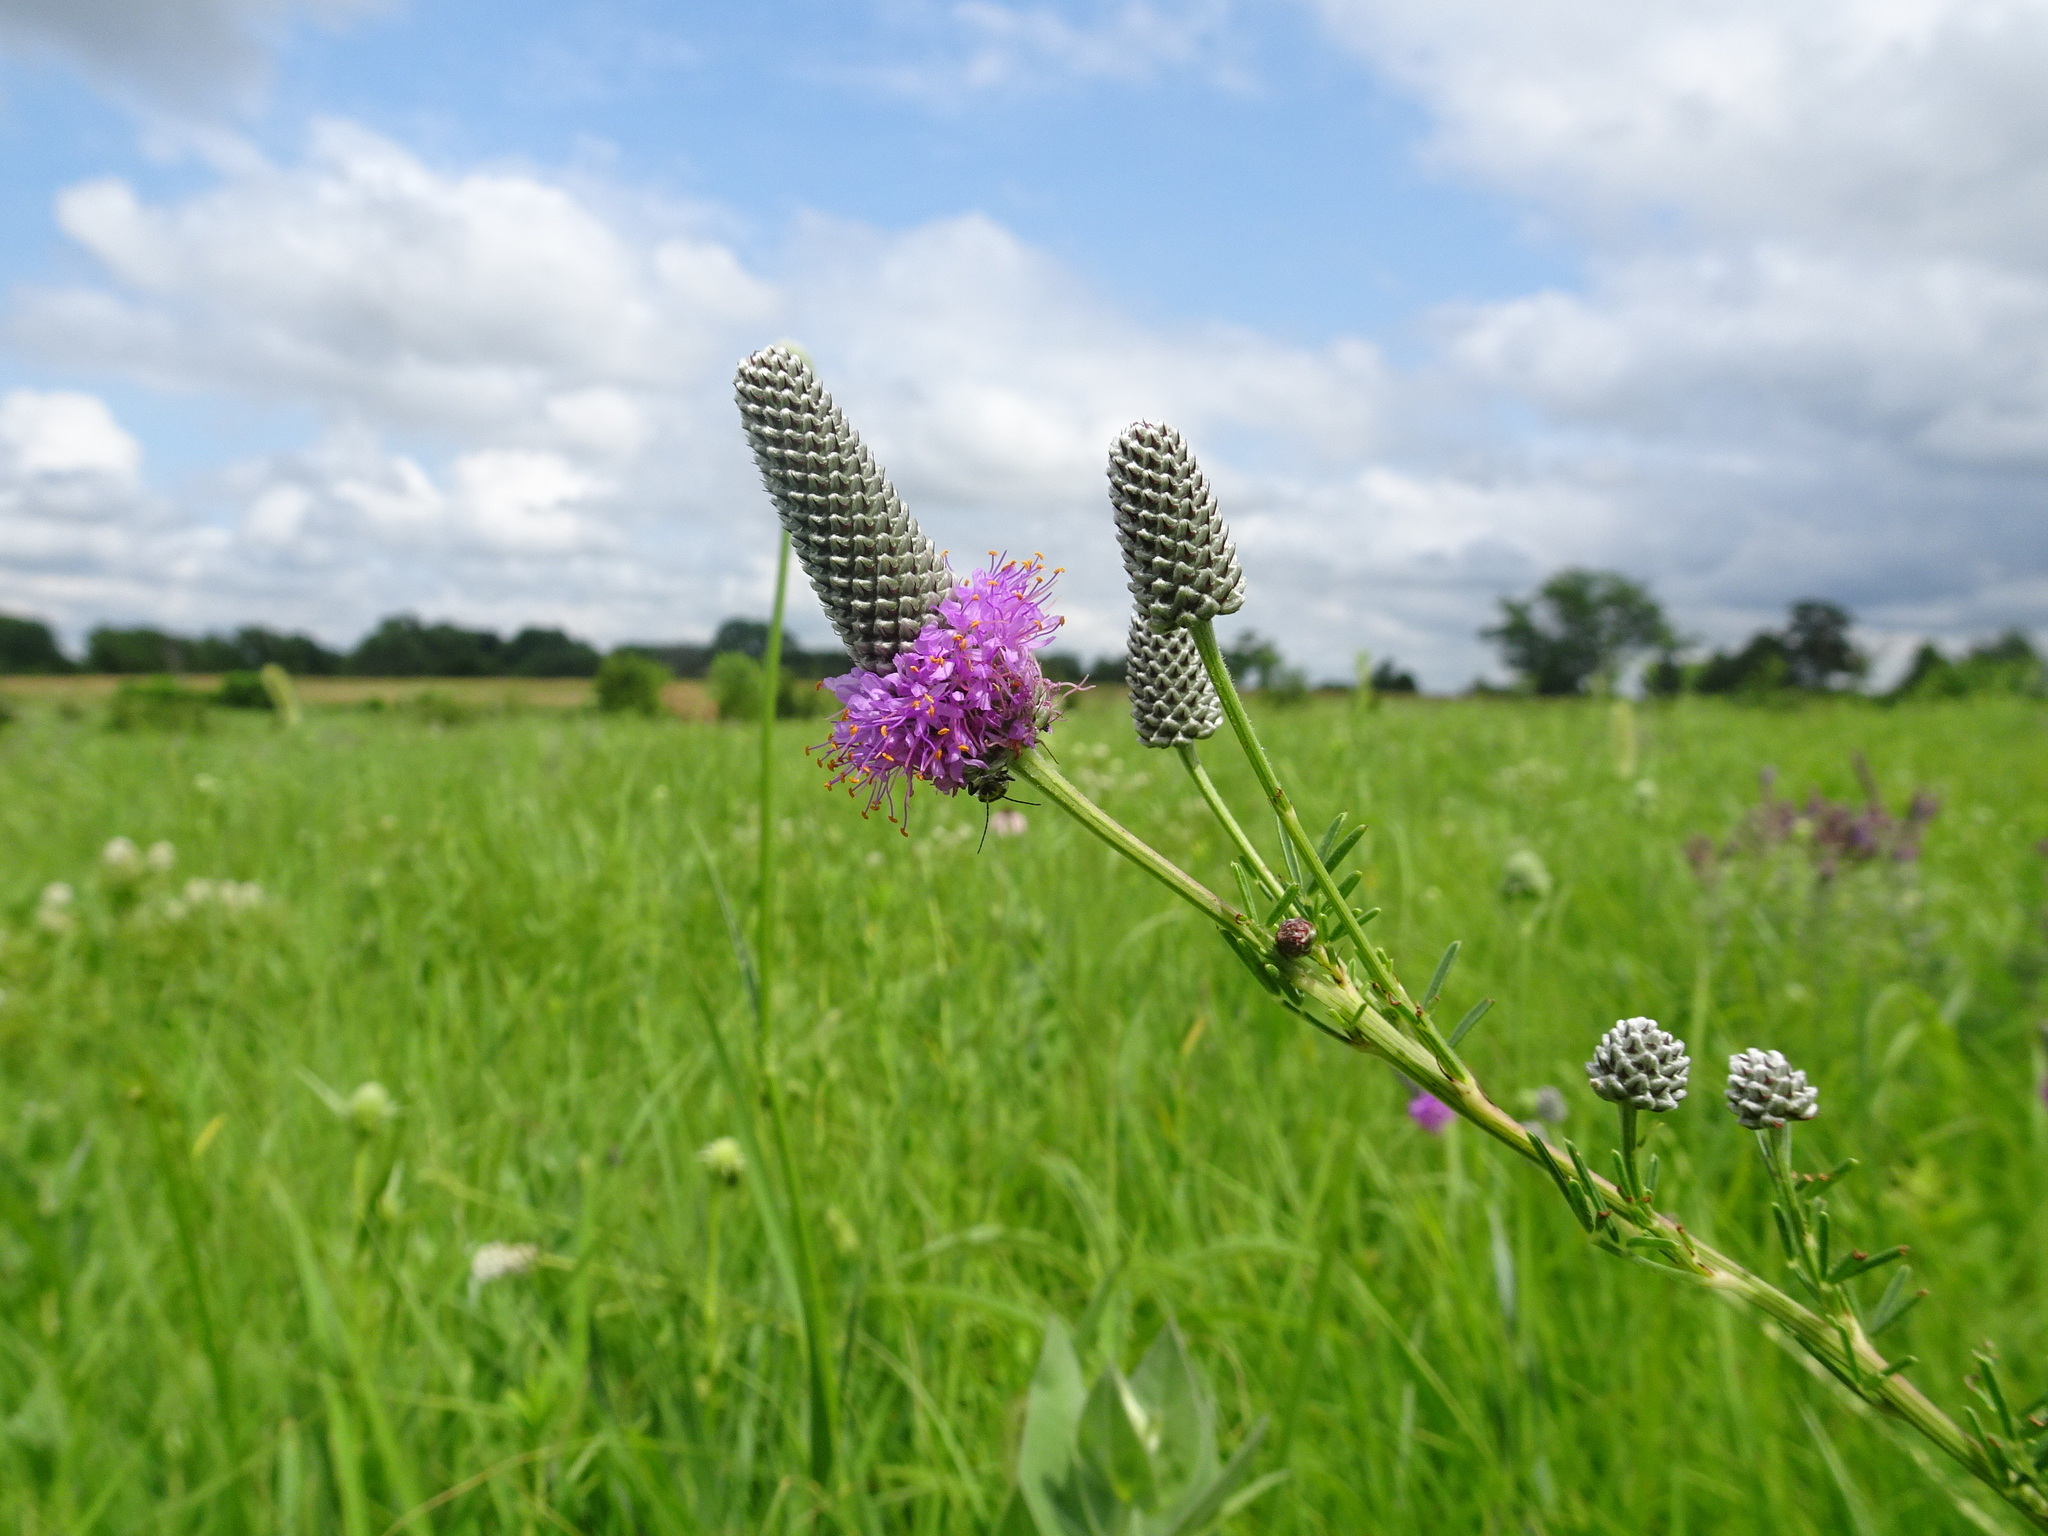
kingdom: Plantae
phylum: Tracheophyta
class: Magnoliopsida
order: Fabales
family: Fabaceae
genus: Dalea
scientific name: Dalea purpurea
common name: Purple prairie-clover
